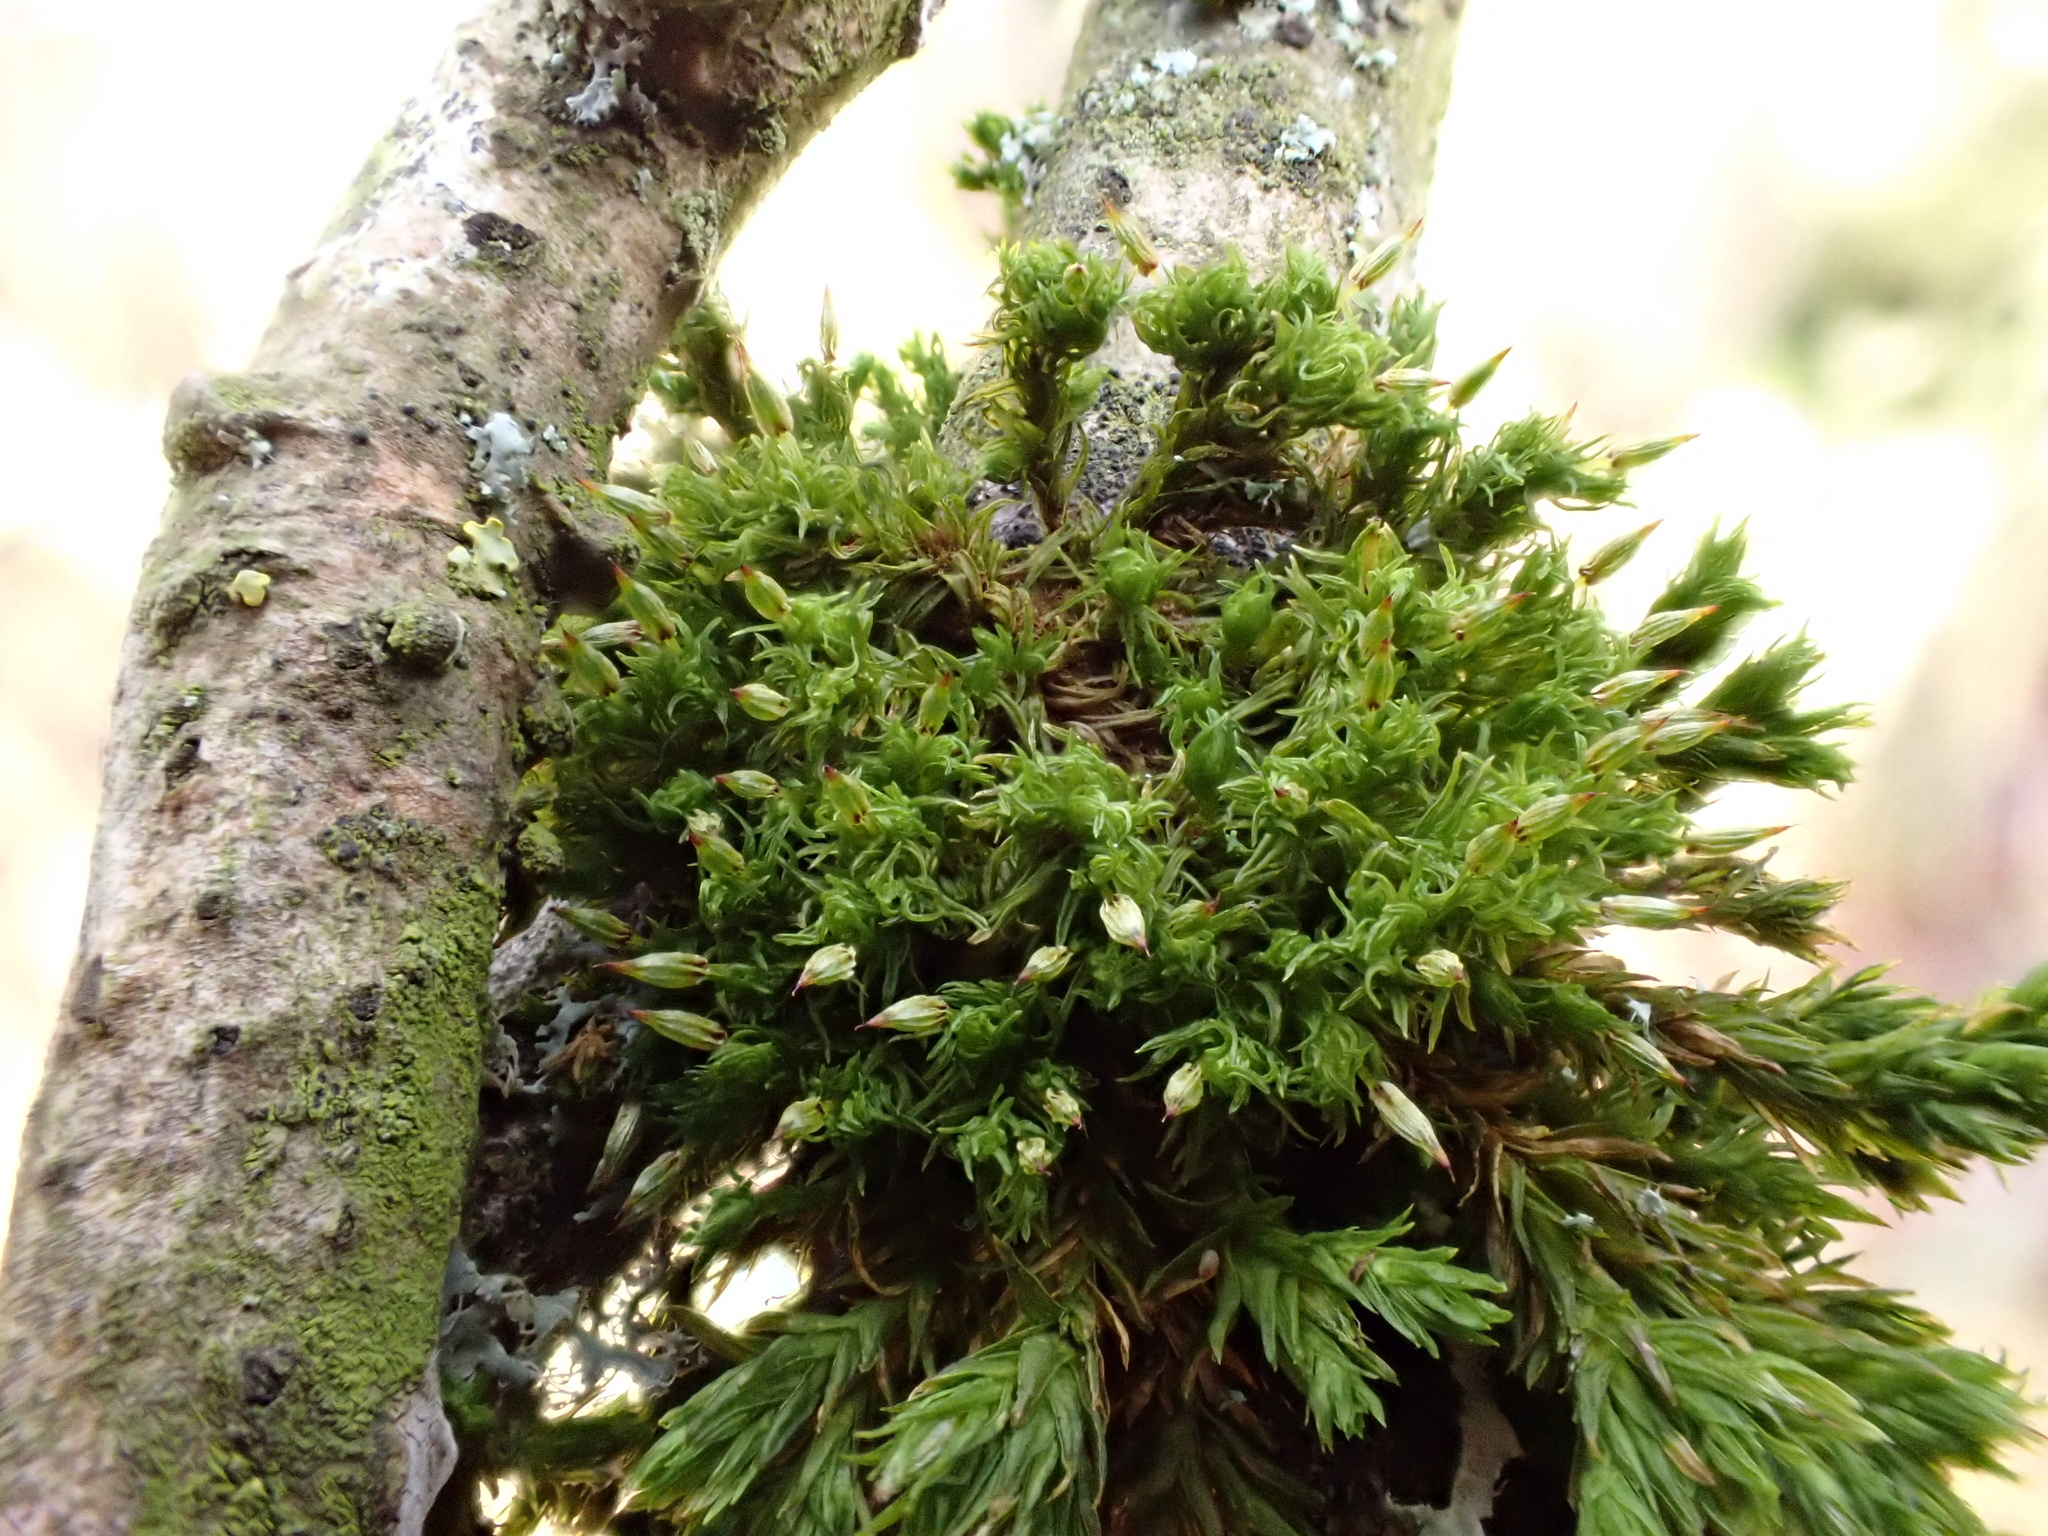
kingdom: Plantae
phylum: Bryophyta
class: Bryopsida
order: Orthotrichales
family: Orthotrichaceae
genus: Orthotrichum
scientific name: Orthotrichum pulchellum
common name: Elegant bristle-moss
